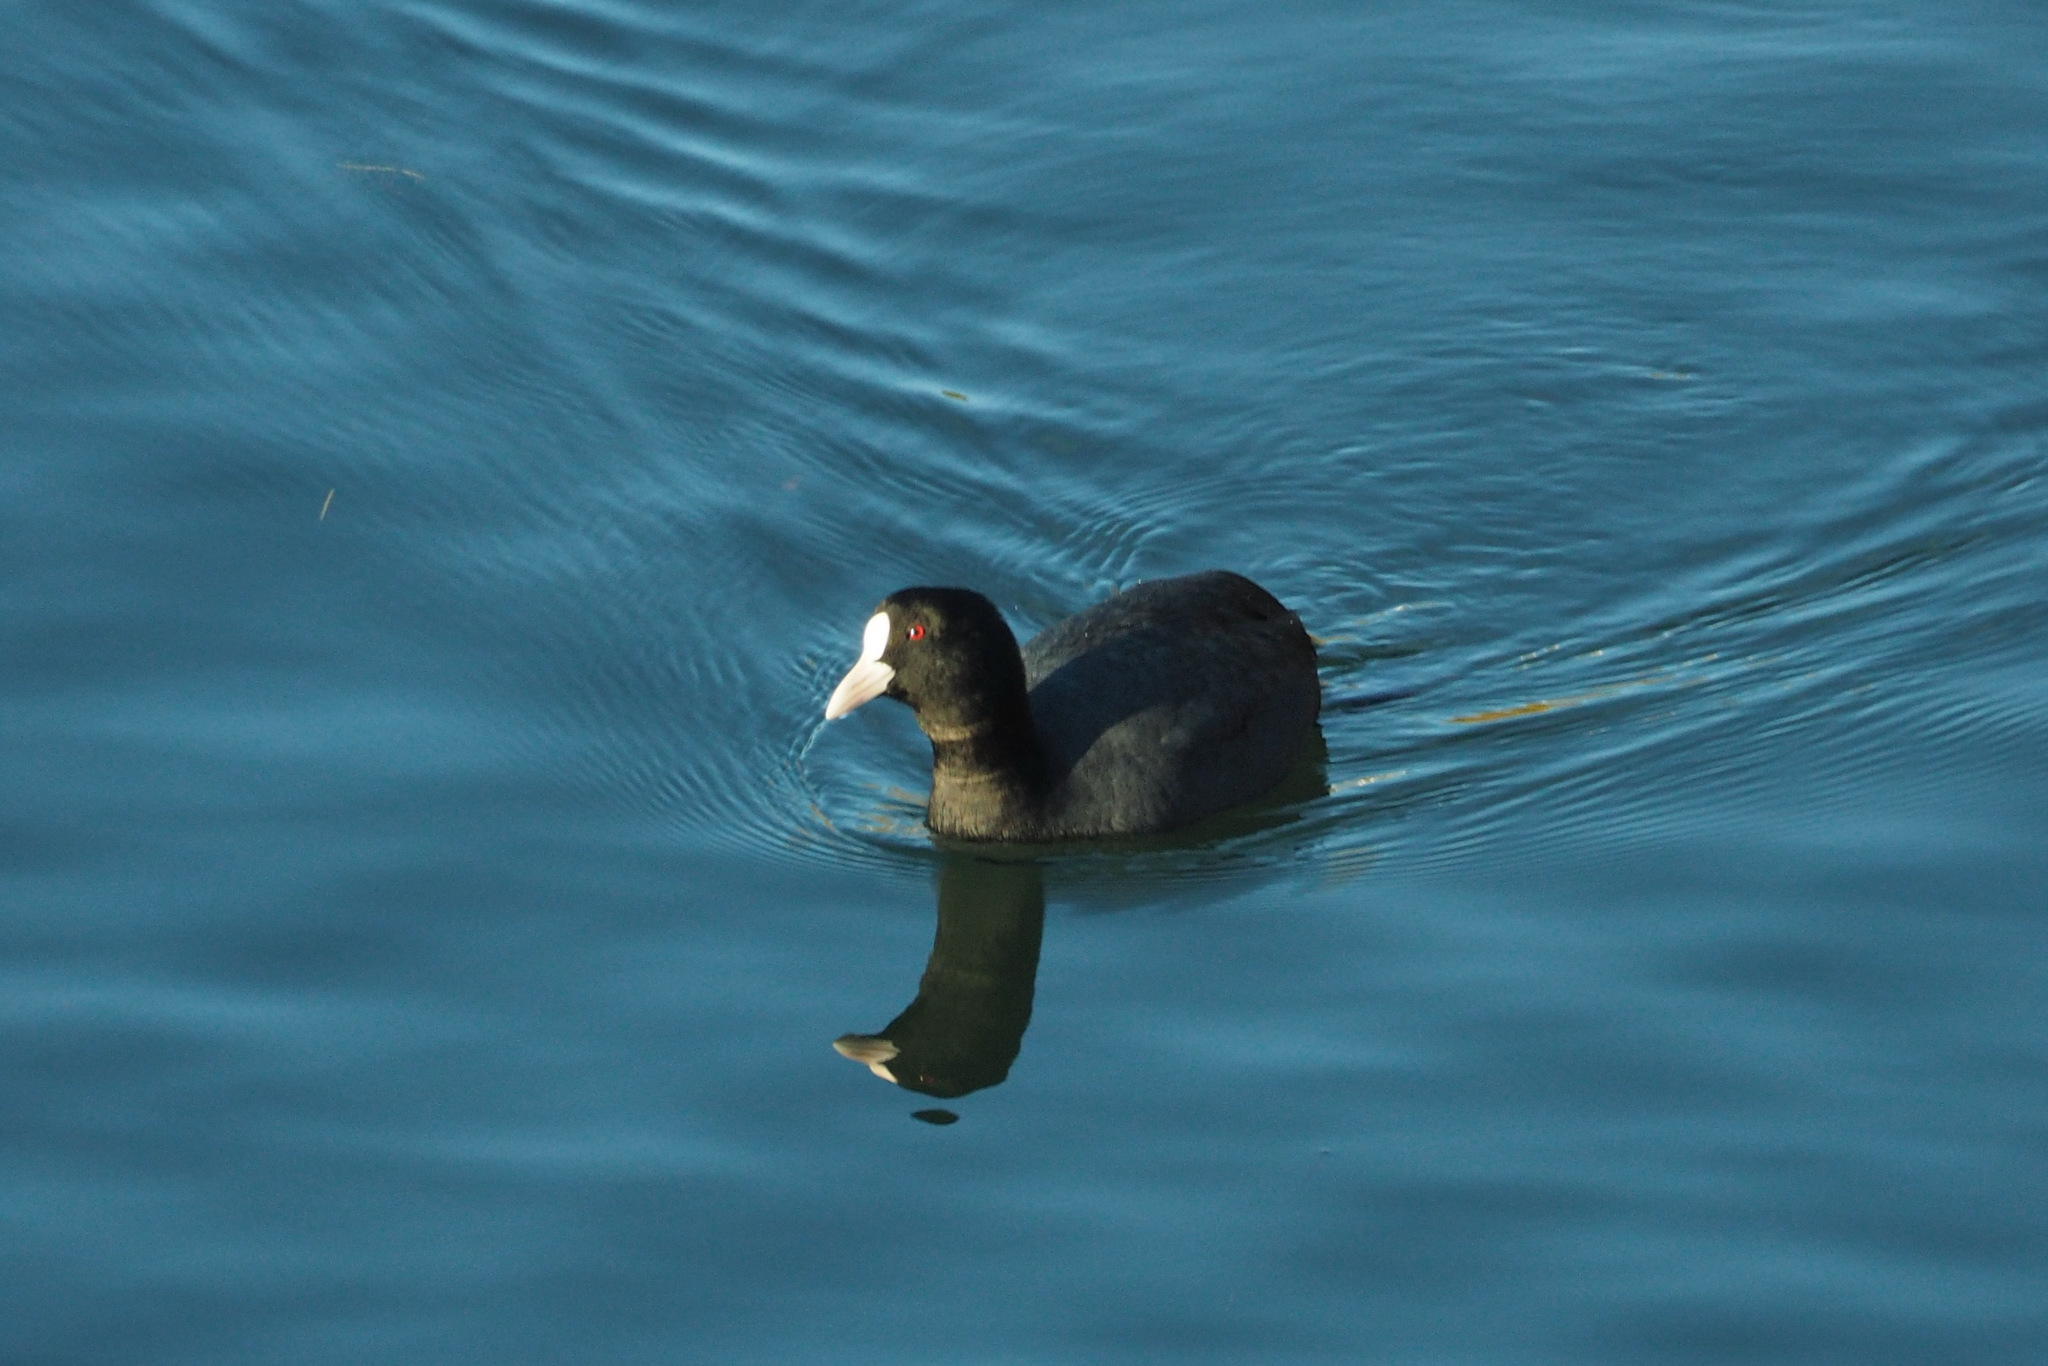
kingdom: Animalia
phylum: Chordata
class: Aves
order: Gruiformes
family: Rallidae
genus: Fulica
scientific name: Fulica atra
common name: Eurasian coot
